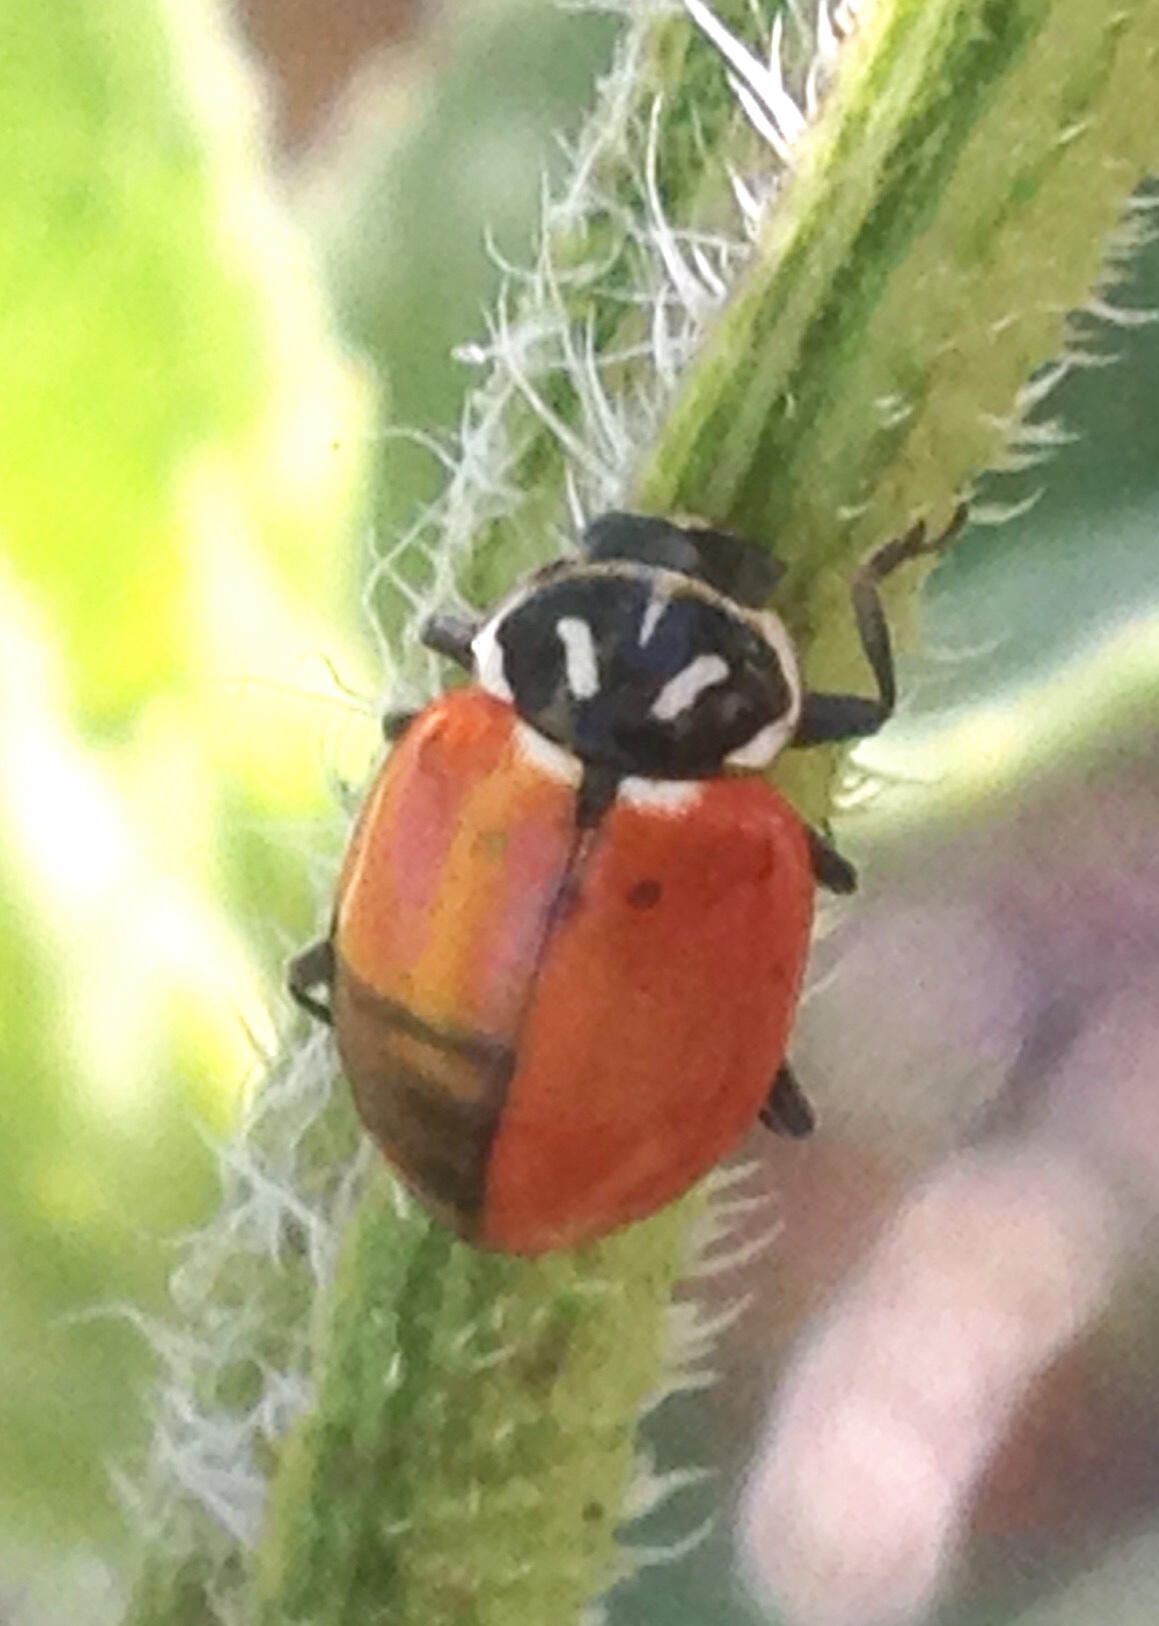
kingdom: Animalia
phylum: Arthropoda
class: Insecta
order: Coleoptera
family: Coccinellidae
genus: Hippodamia
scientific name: Hippodamia convergens
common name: Convergent lady beetle
